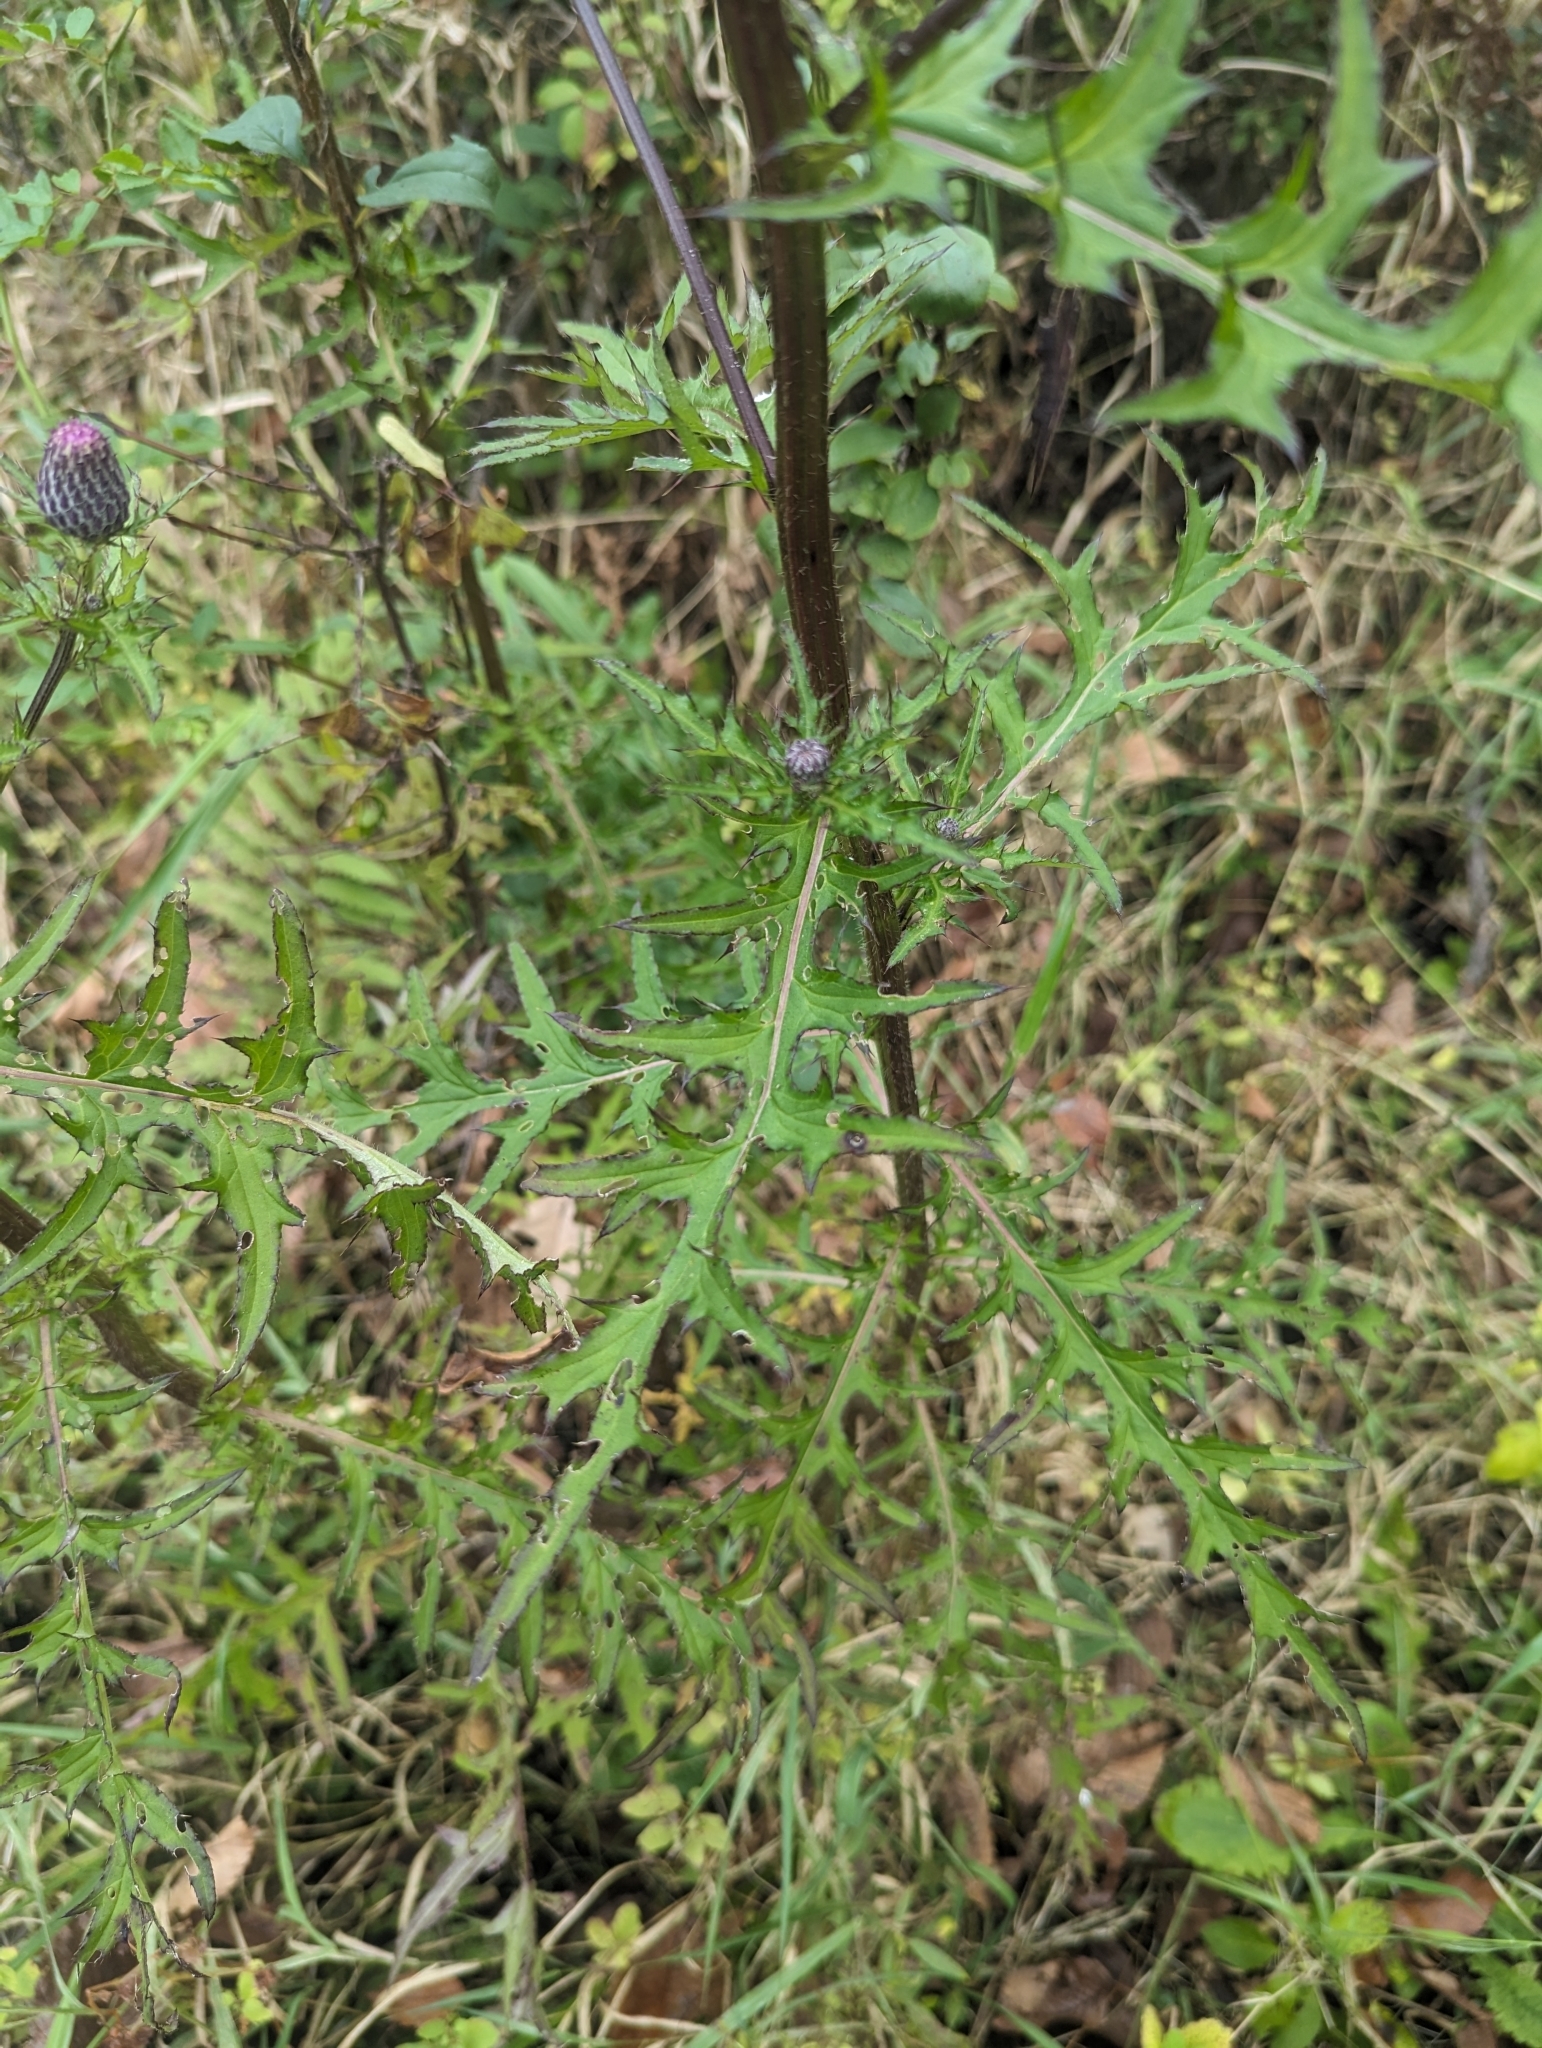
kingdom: Plantae
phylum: Tracheophyta
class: Magnoliopsida
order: Asterales
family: Asteraceae
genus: Cirsium
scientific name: Cirsium muticum
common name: Dunce-nettle
